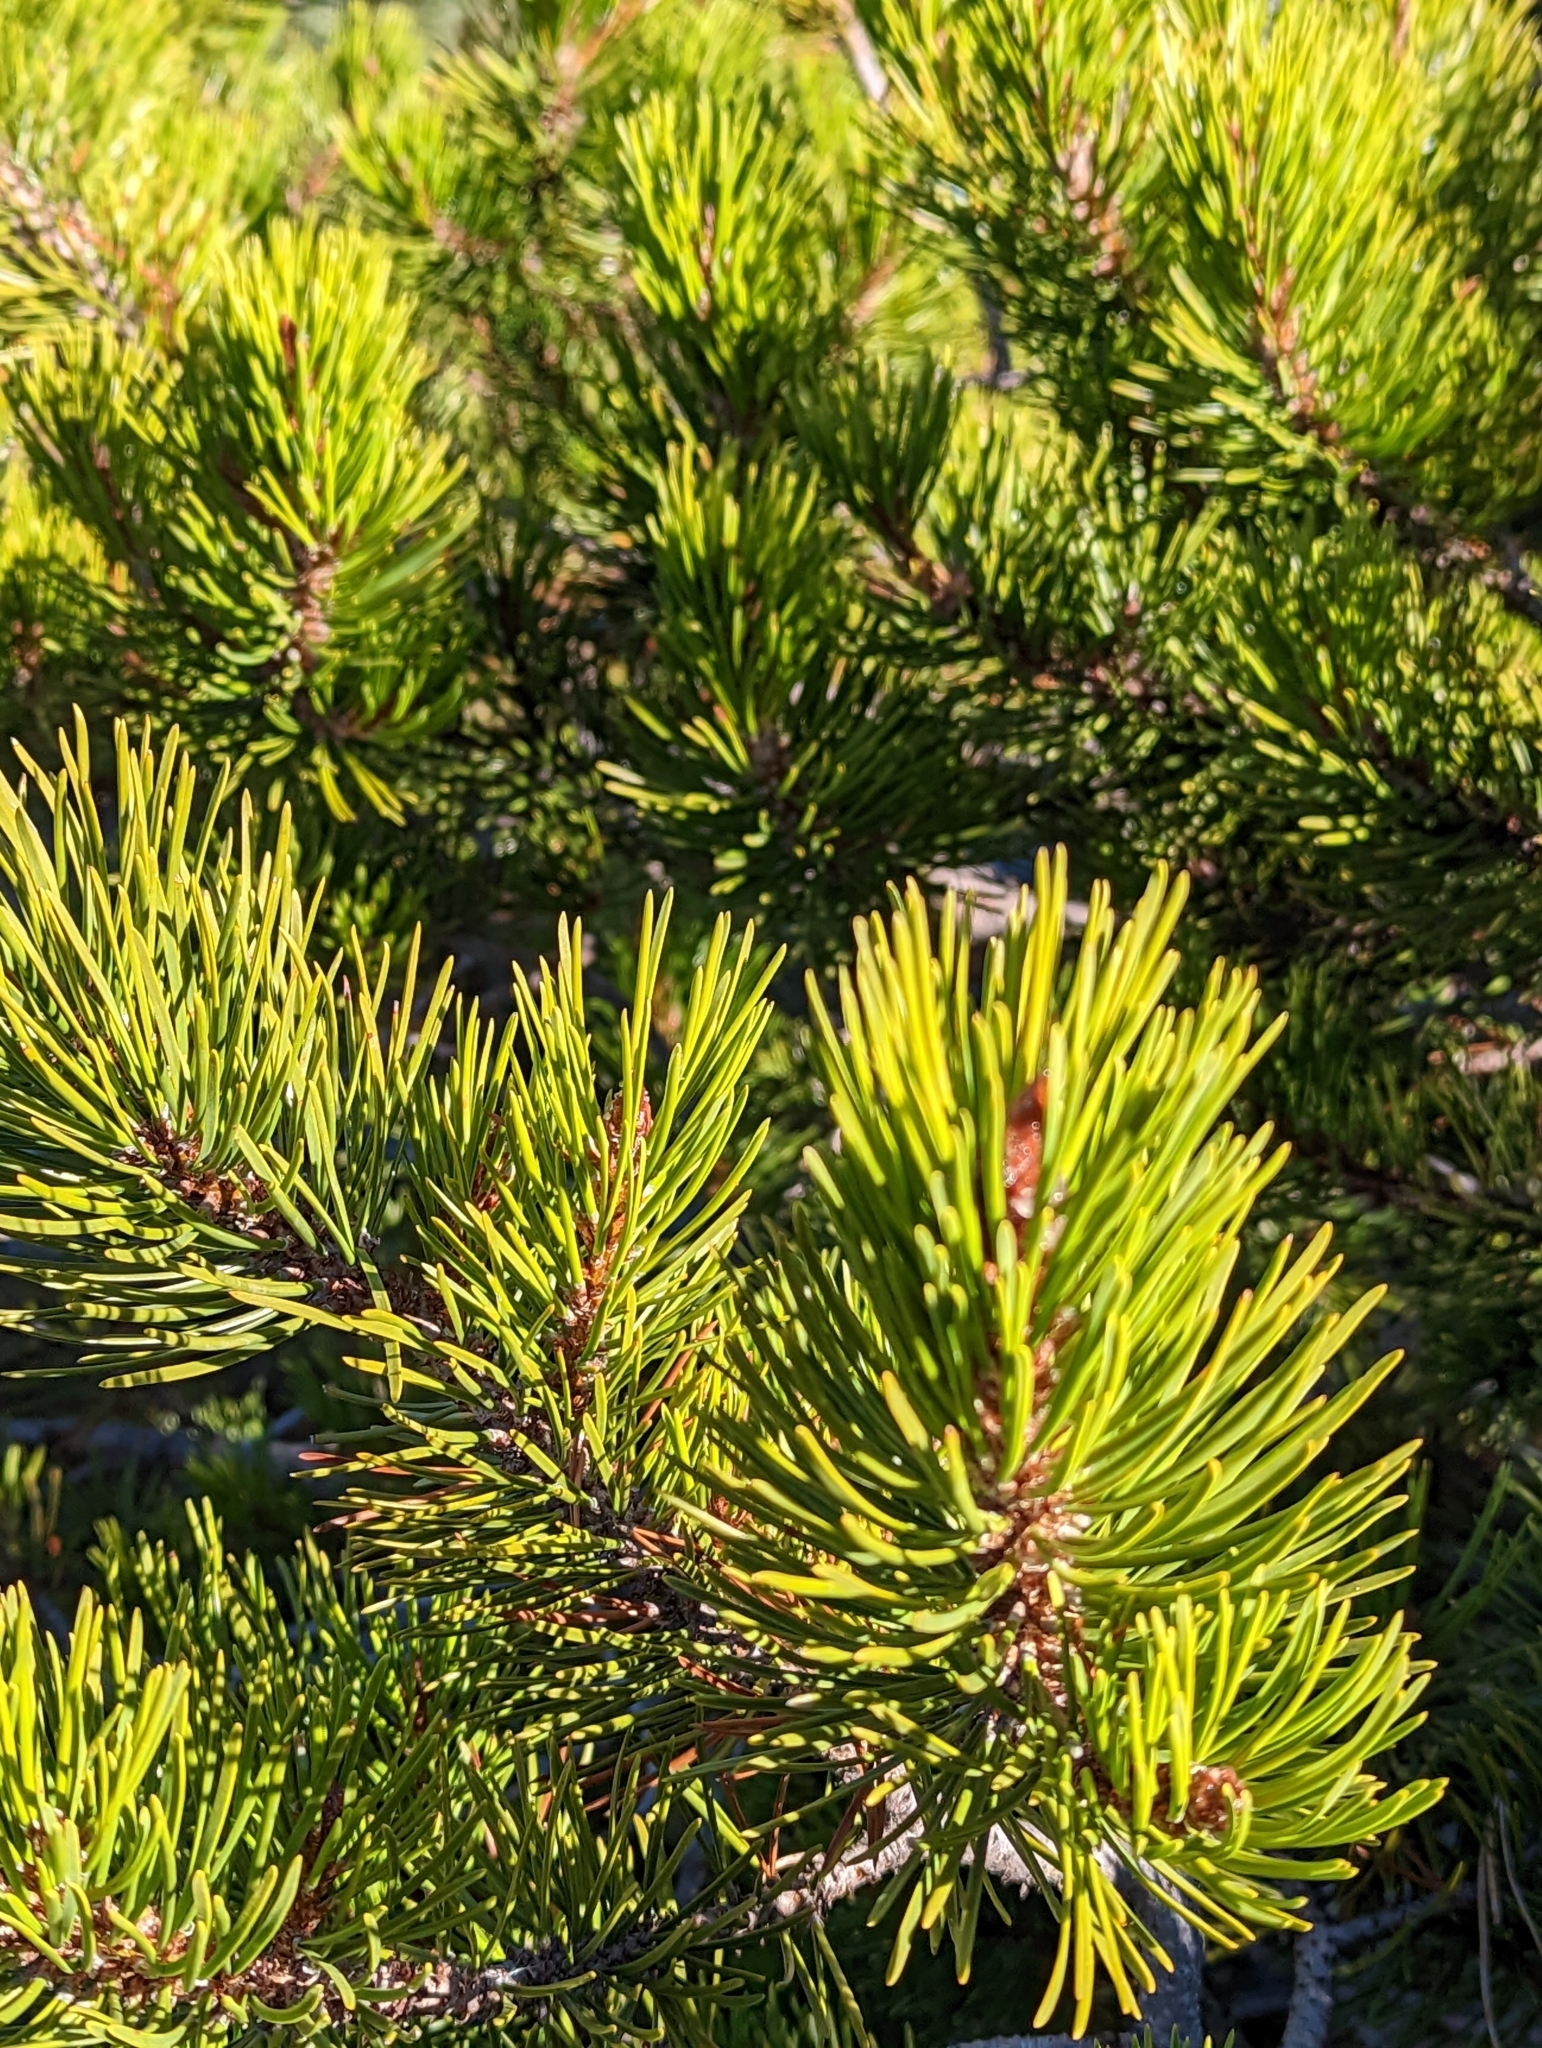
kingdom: Plantae
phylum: Tracheophyta
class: Pinopsida
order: Pinales
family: Pinaceae
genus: Pinus
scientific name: Pinus contorta
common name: Lodgepole pine
